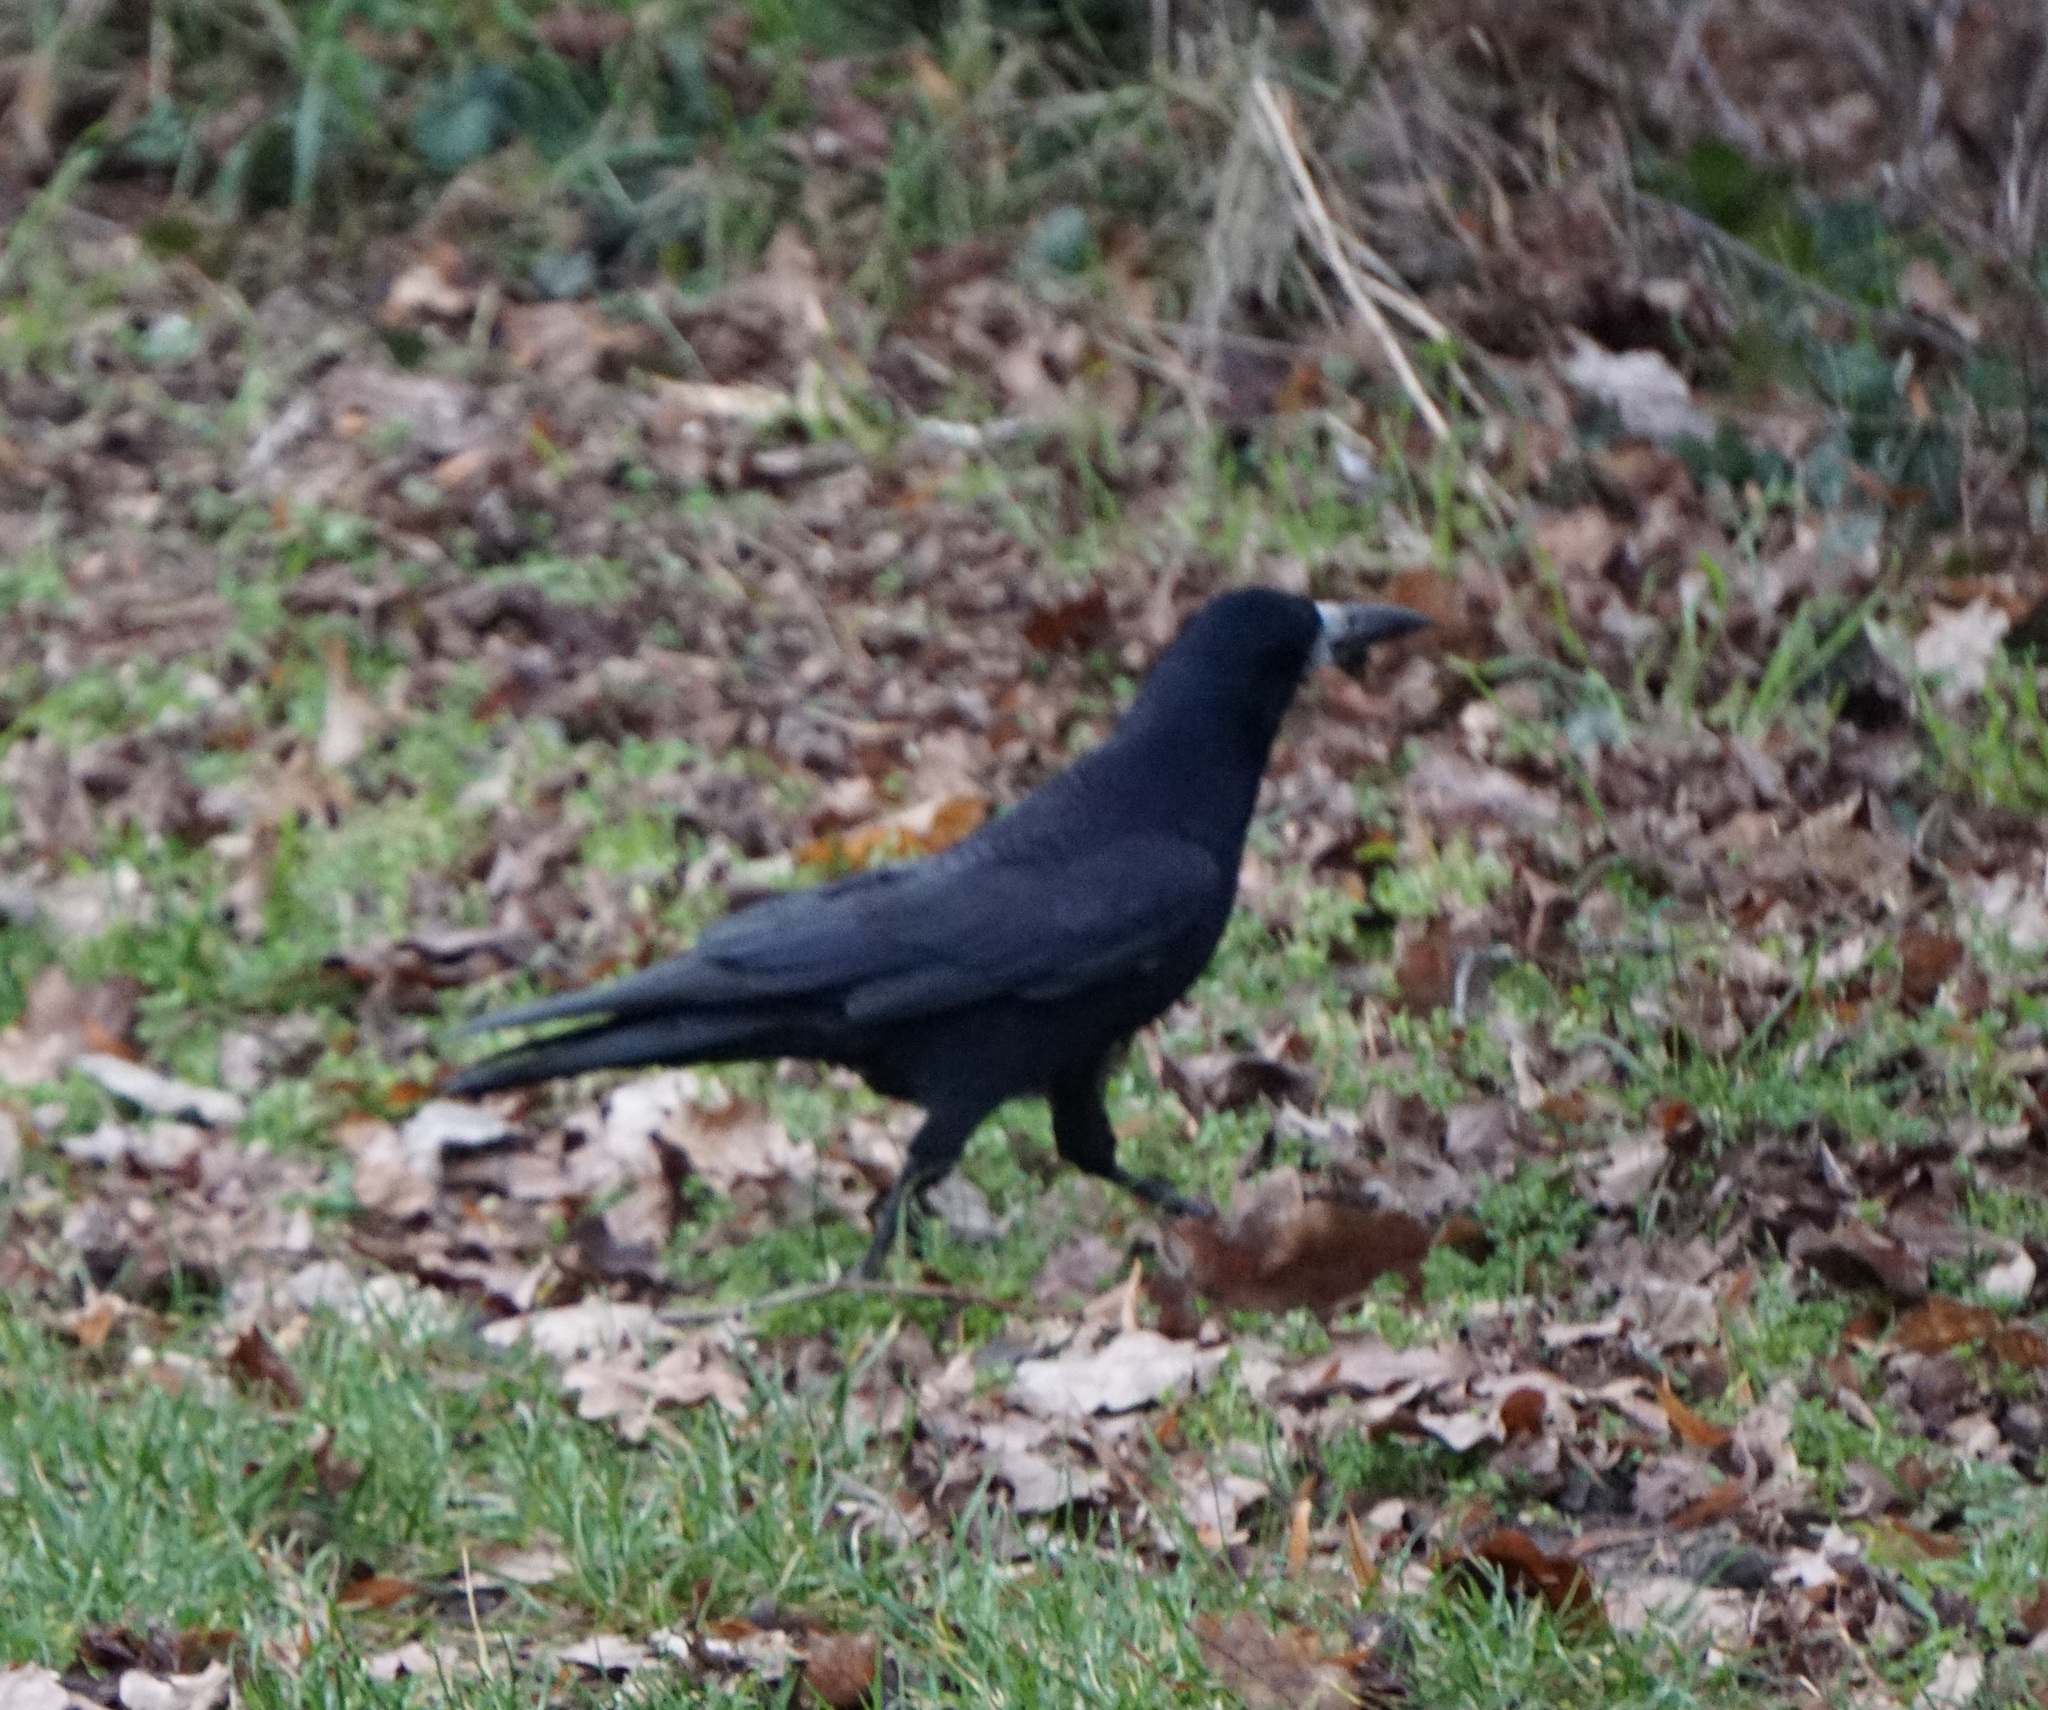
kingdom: Animalia
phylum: Chordata
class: Aves
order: Passeriformes
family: Corvidae
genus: Corvus
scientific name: Corvus frugilegus
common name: Rook
